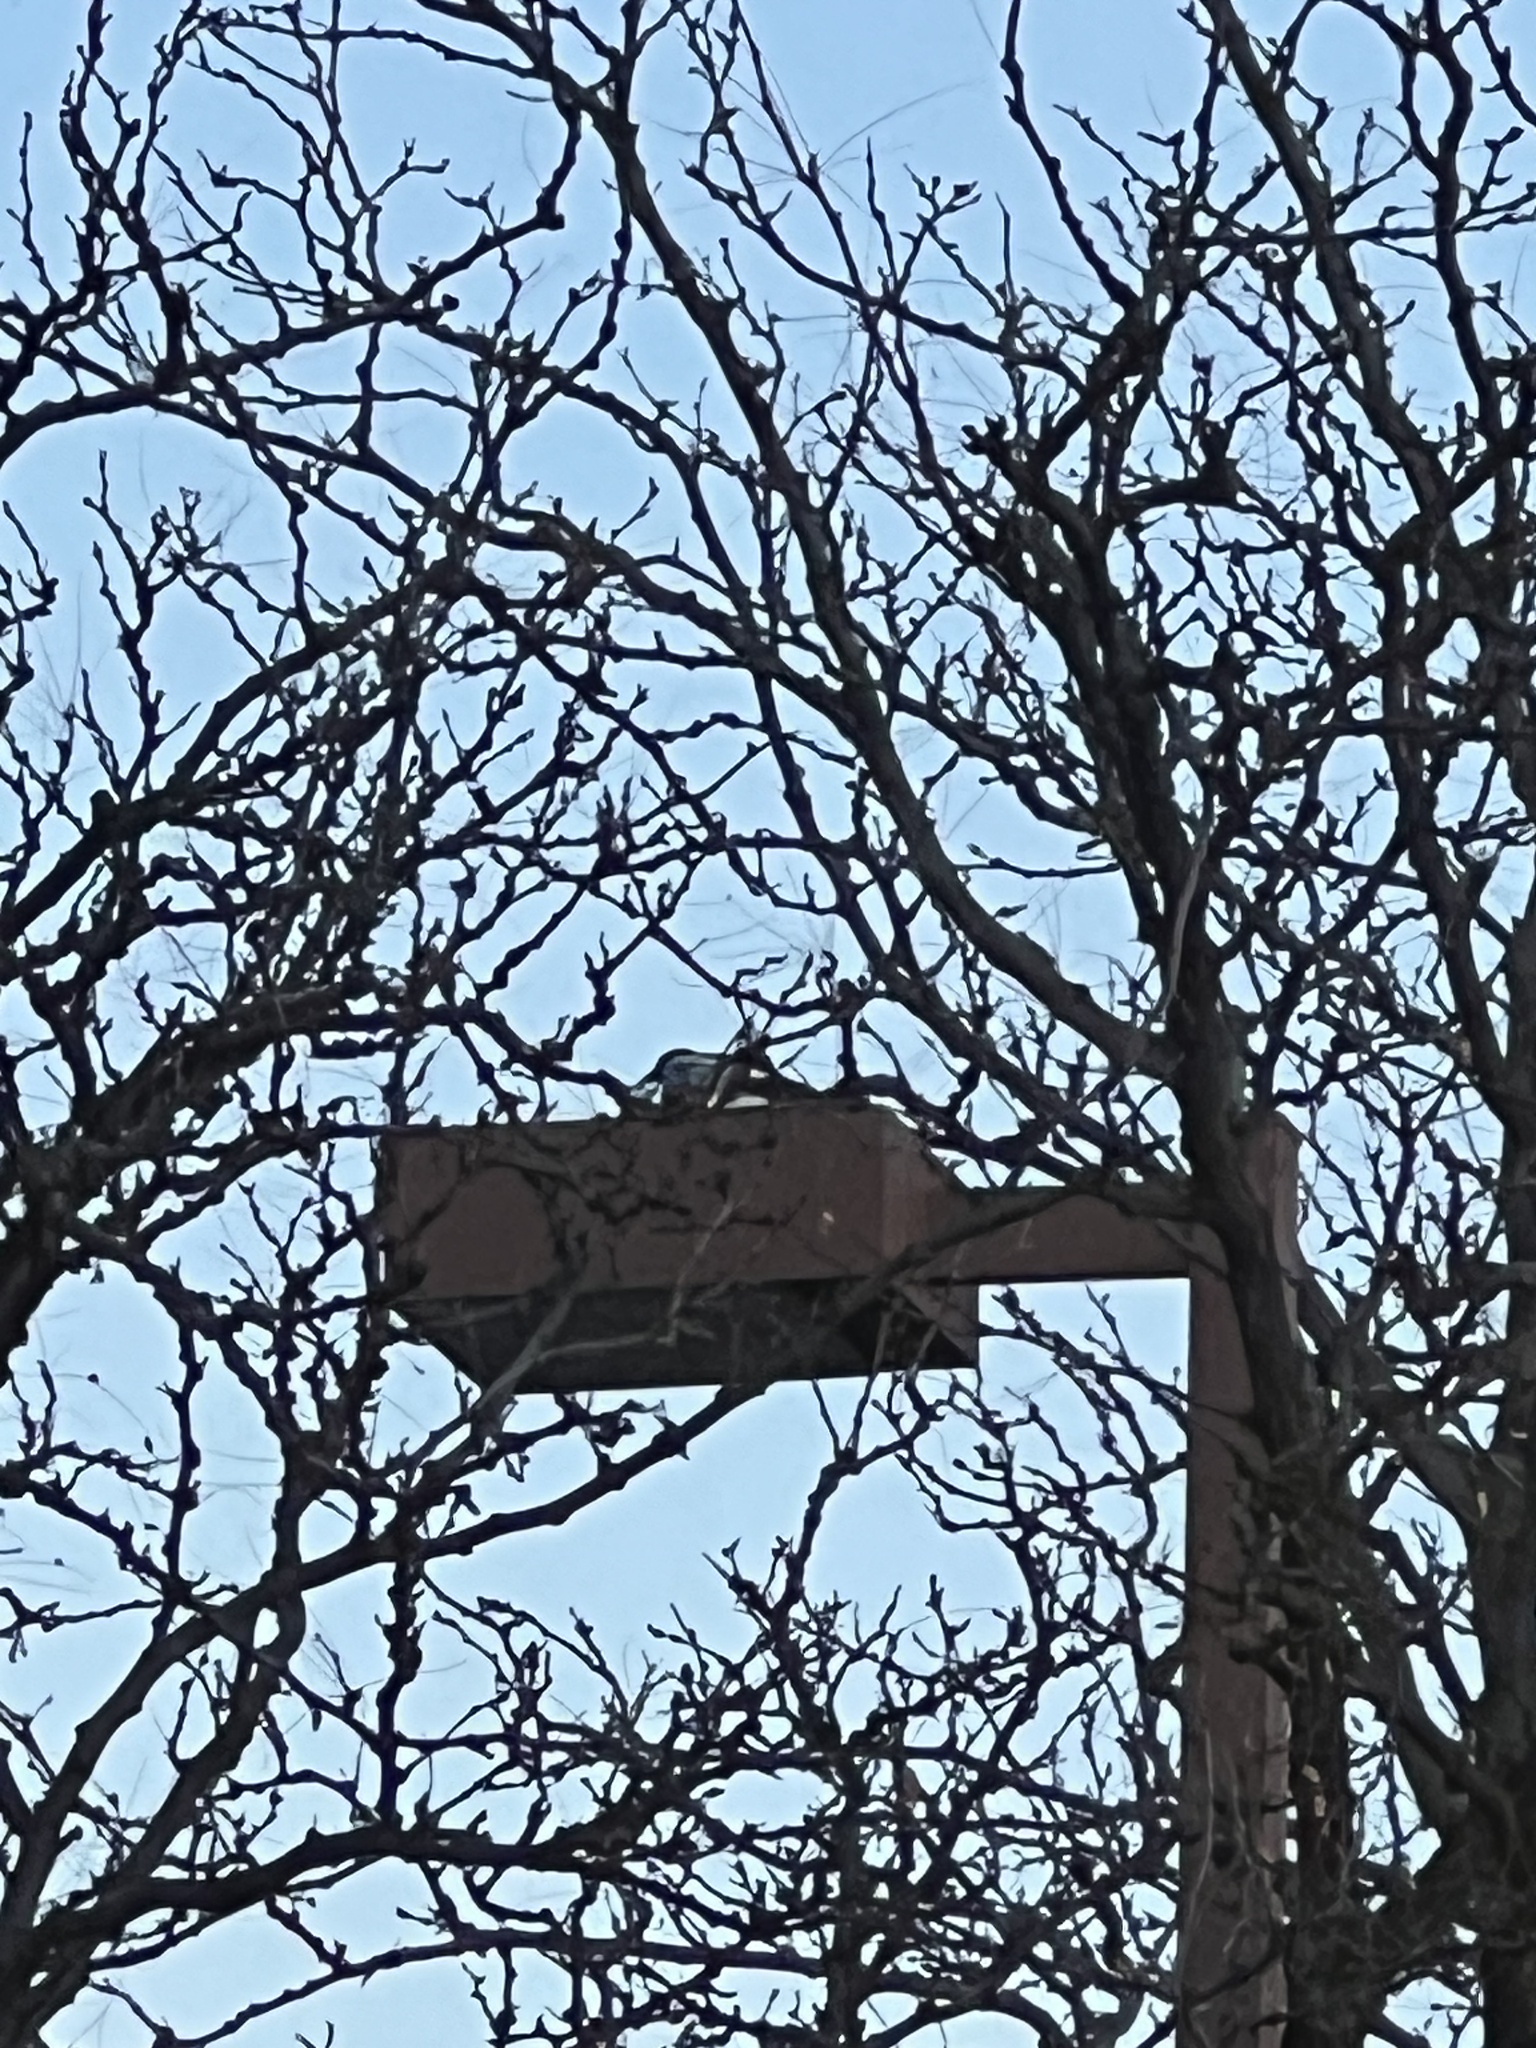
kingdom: Animalia
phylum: Chordata
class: Aves
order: Passeriformes
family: Corvidae
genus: Pica
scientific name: Pica hudsonia
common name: Black-billed magpie
